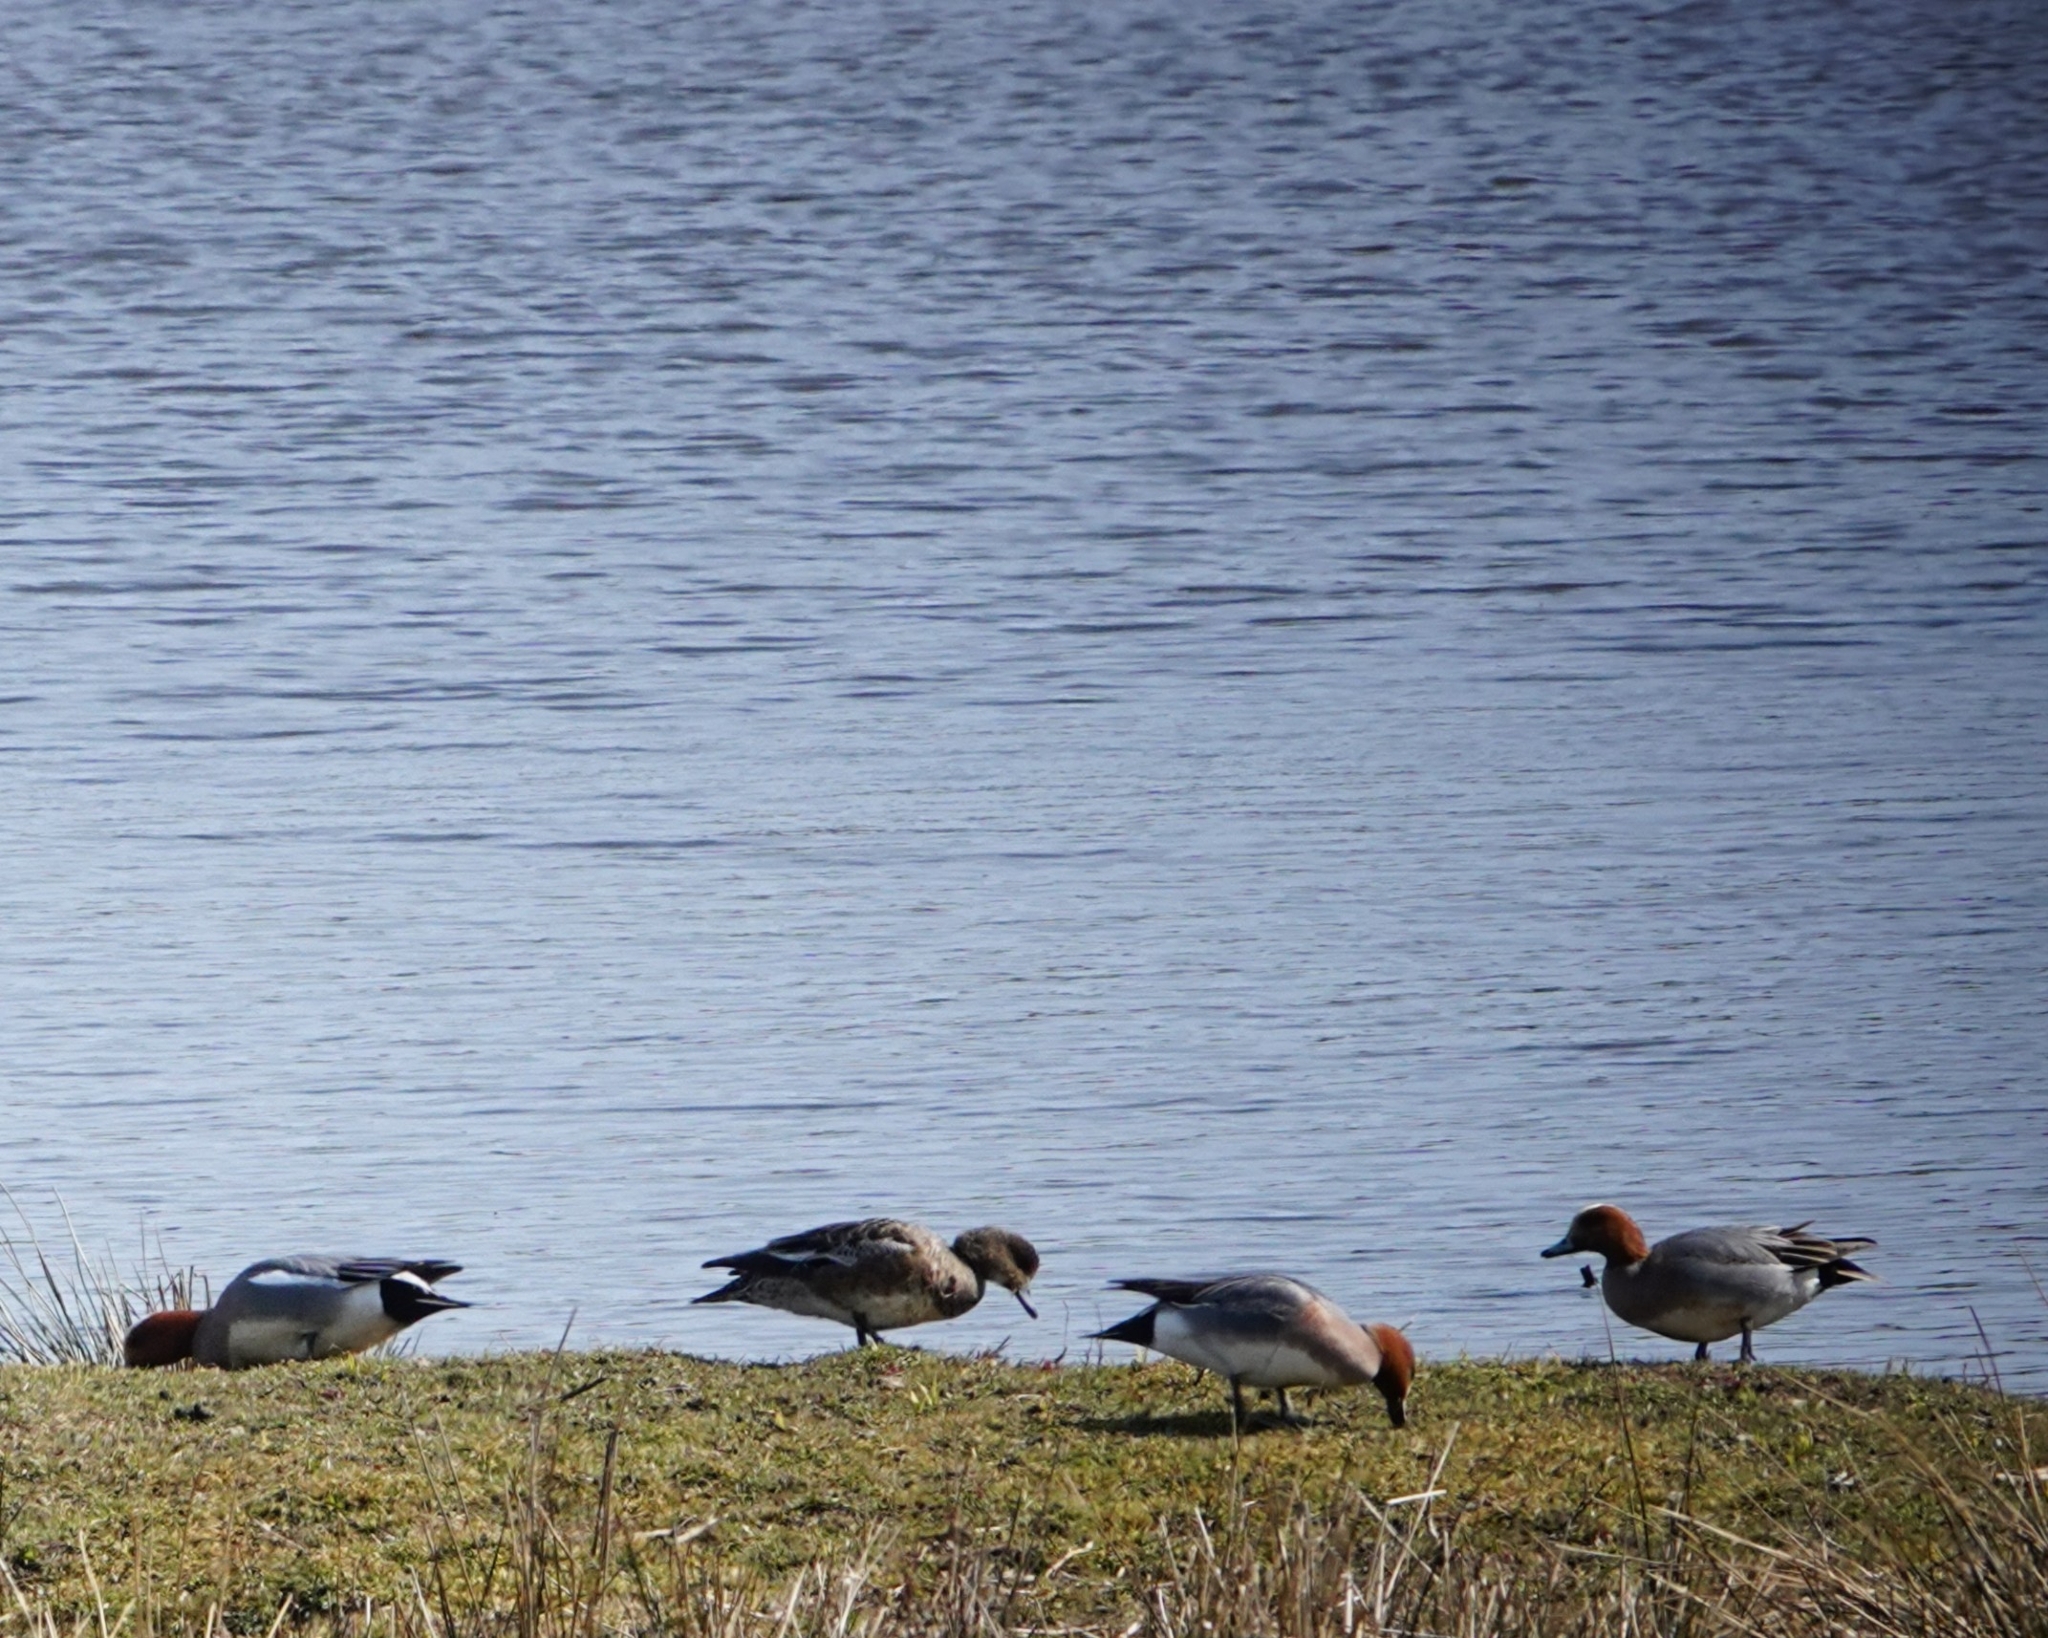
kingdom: Animalia
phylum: Chordata
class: Aves
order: Anseriformes
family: Anatidae
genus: Mareca
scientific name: Mareca penelope
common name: Eurasian wigeon
